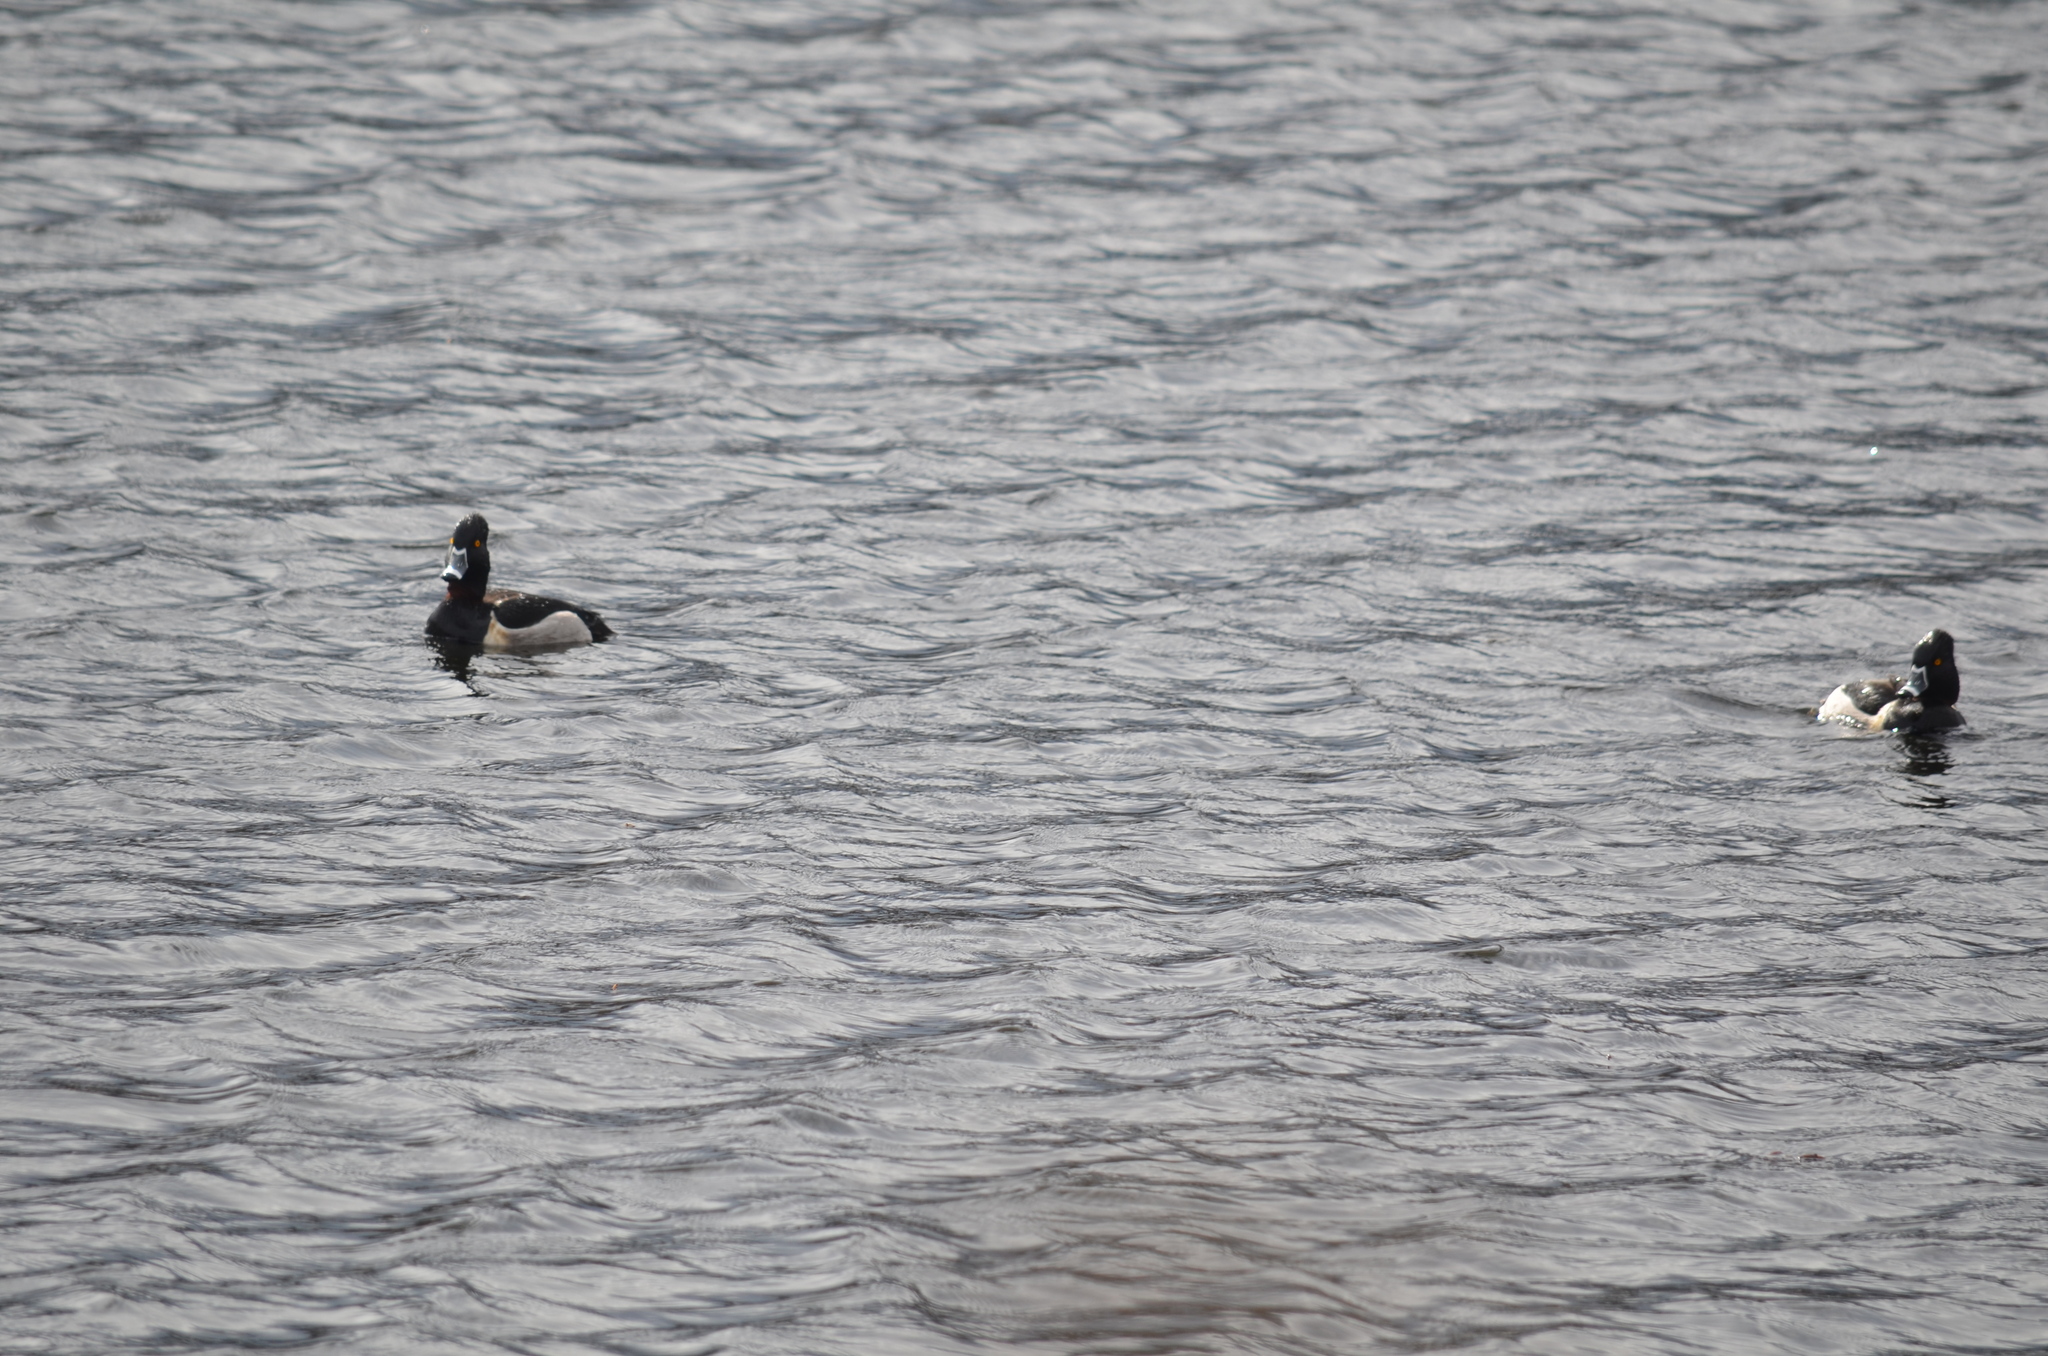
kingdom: Animalia
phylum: Chordata
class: Aves
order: Anseriformes
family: Anatidae
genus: Aythya
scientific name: Aythya collaris
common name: Ring-necked duck
